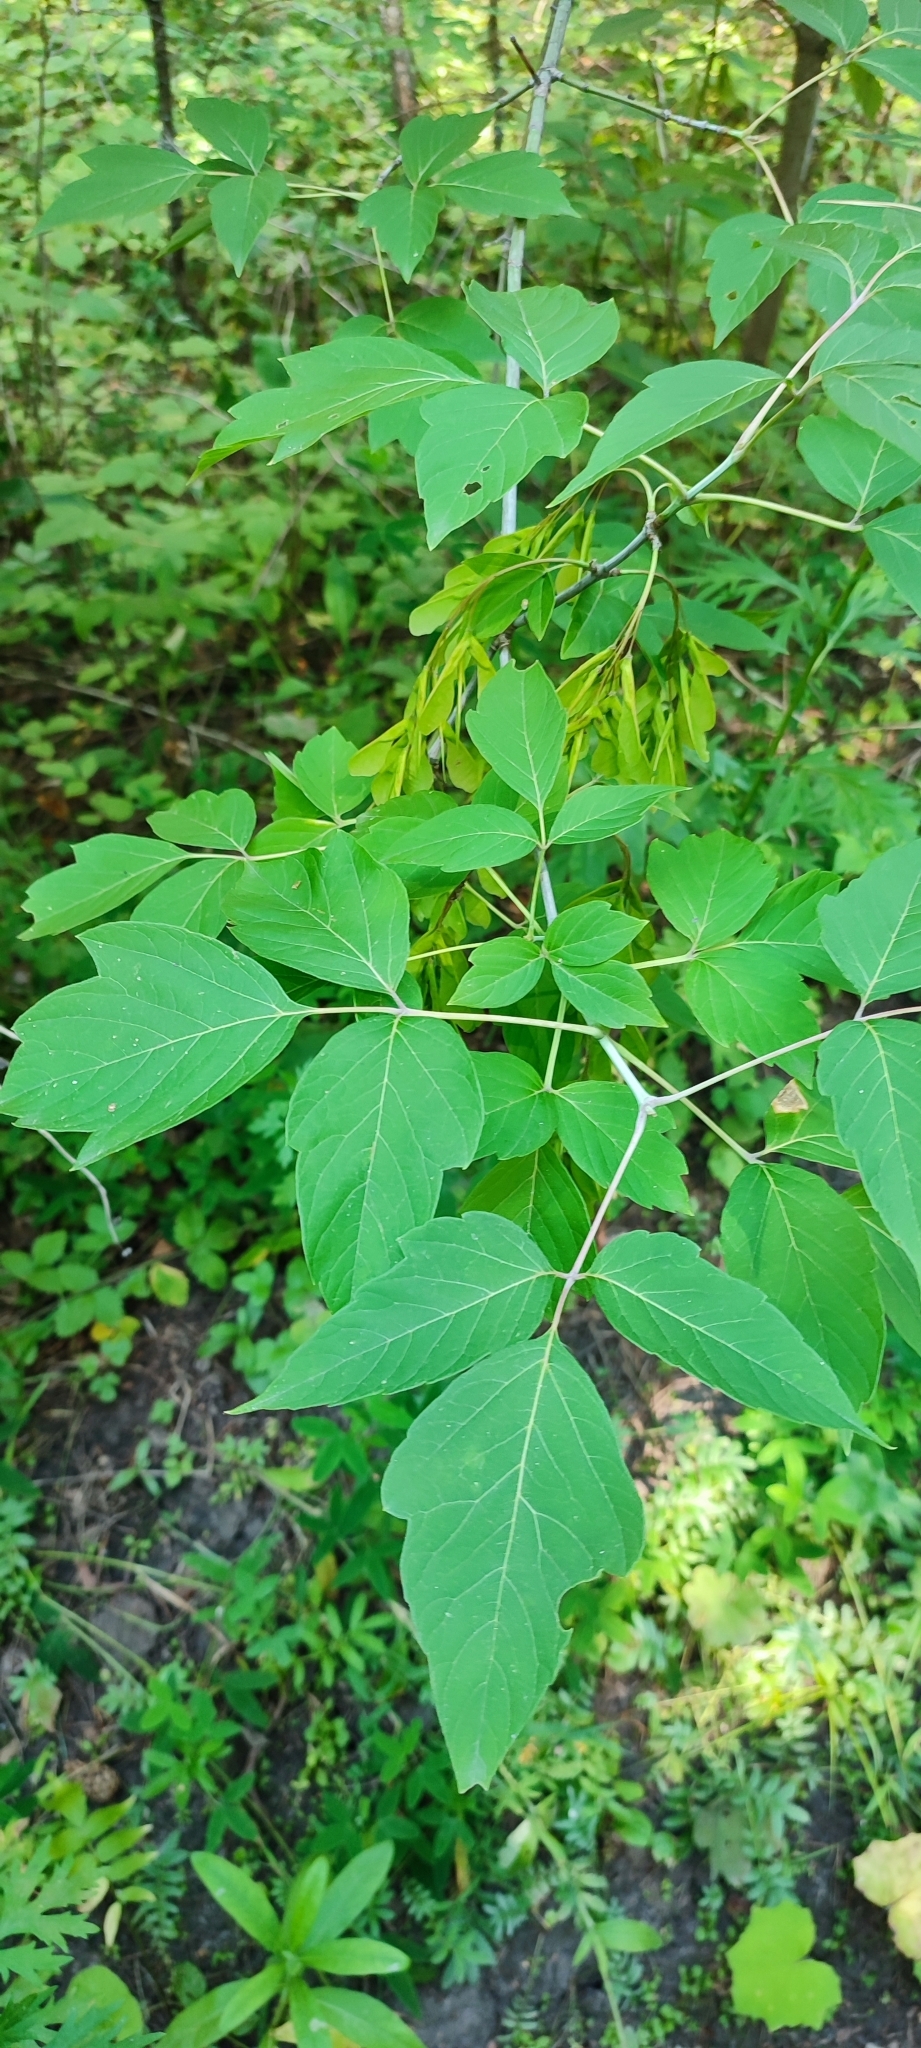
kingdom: Plantae
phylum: Tracheophyta
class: Magnoliopsida
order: Sapindales
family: Sapindaceae
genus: Acer
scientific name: Acer negundo
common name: Ashleaf maple
